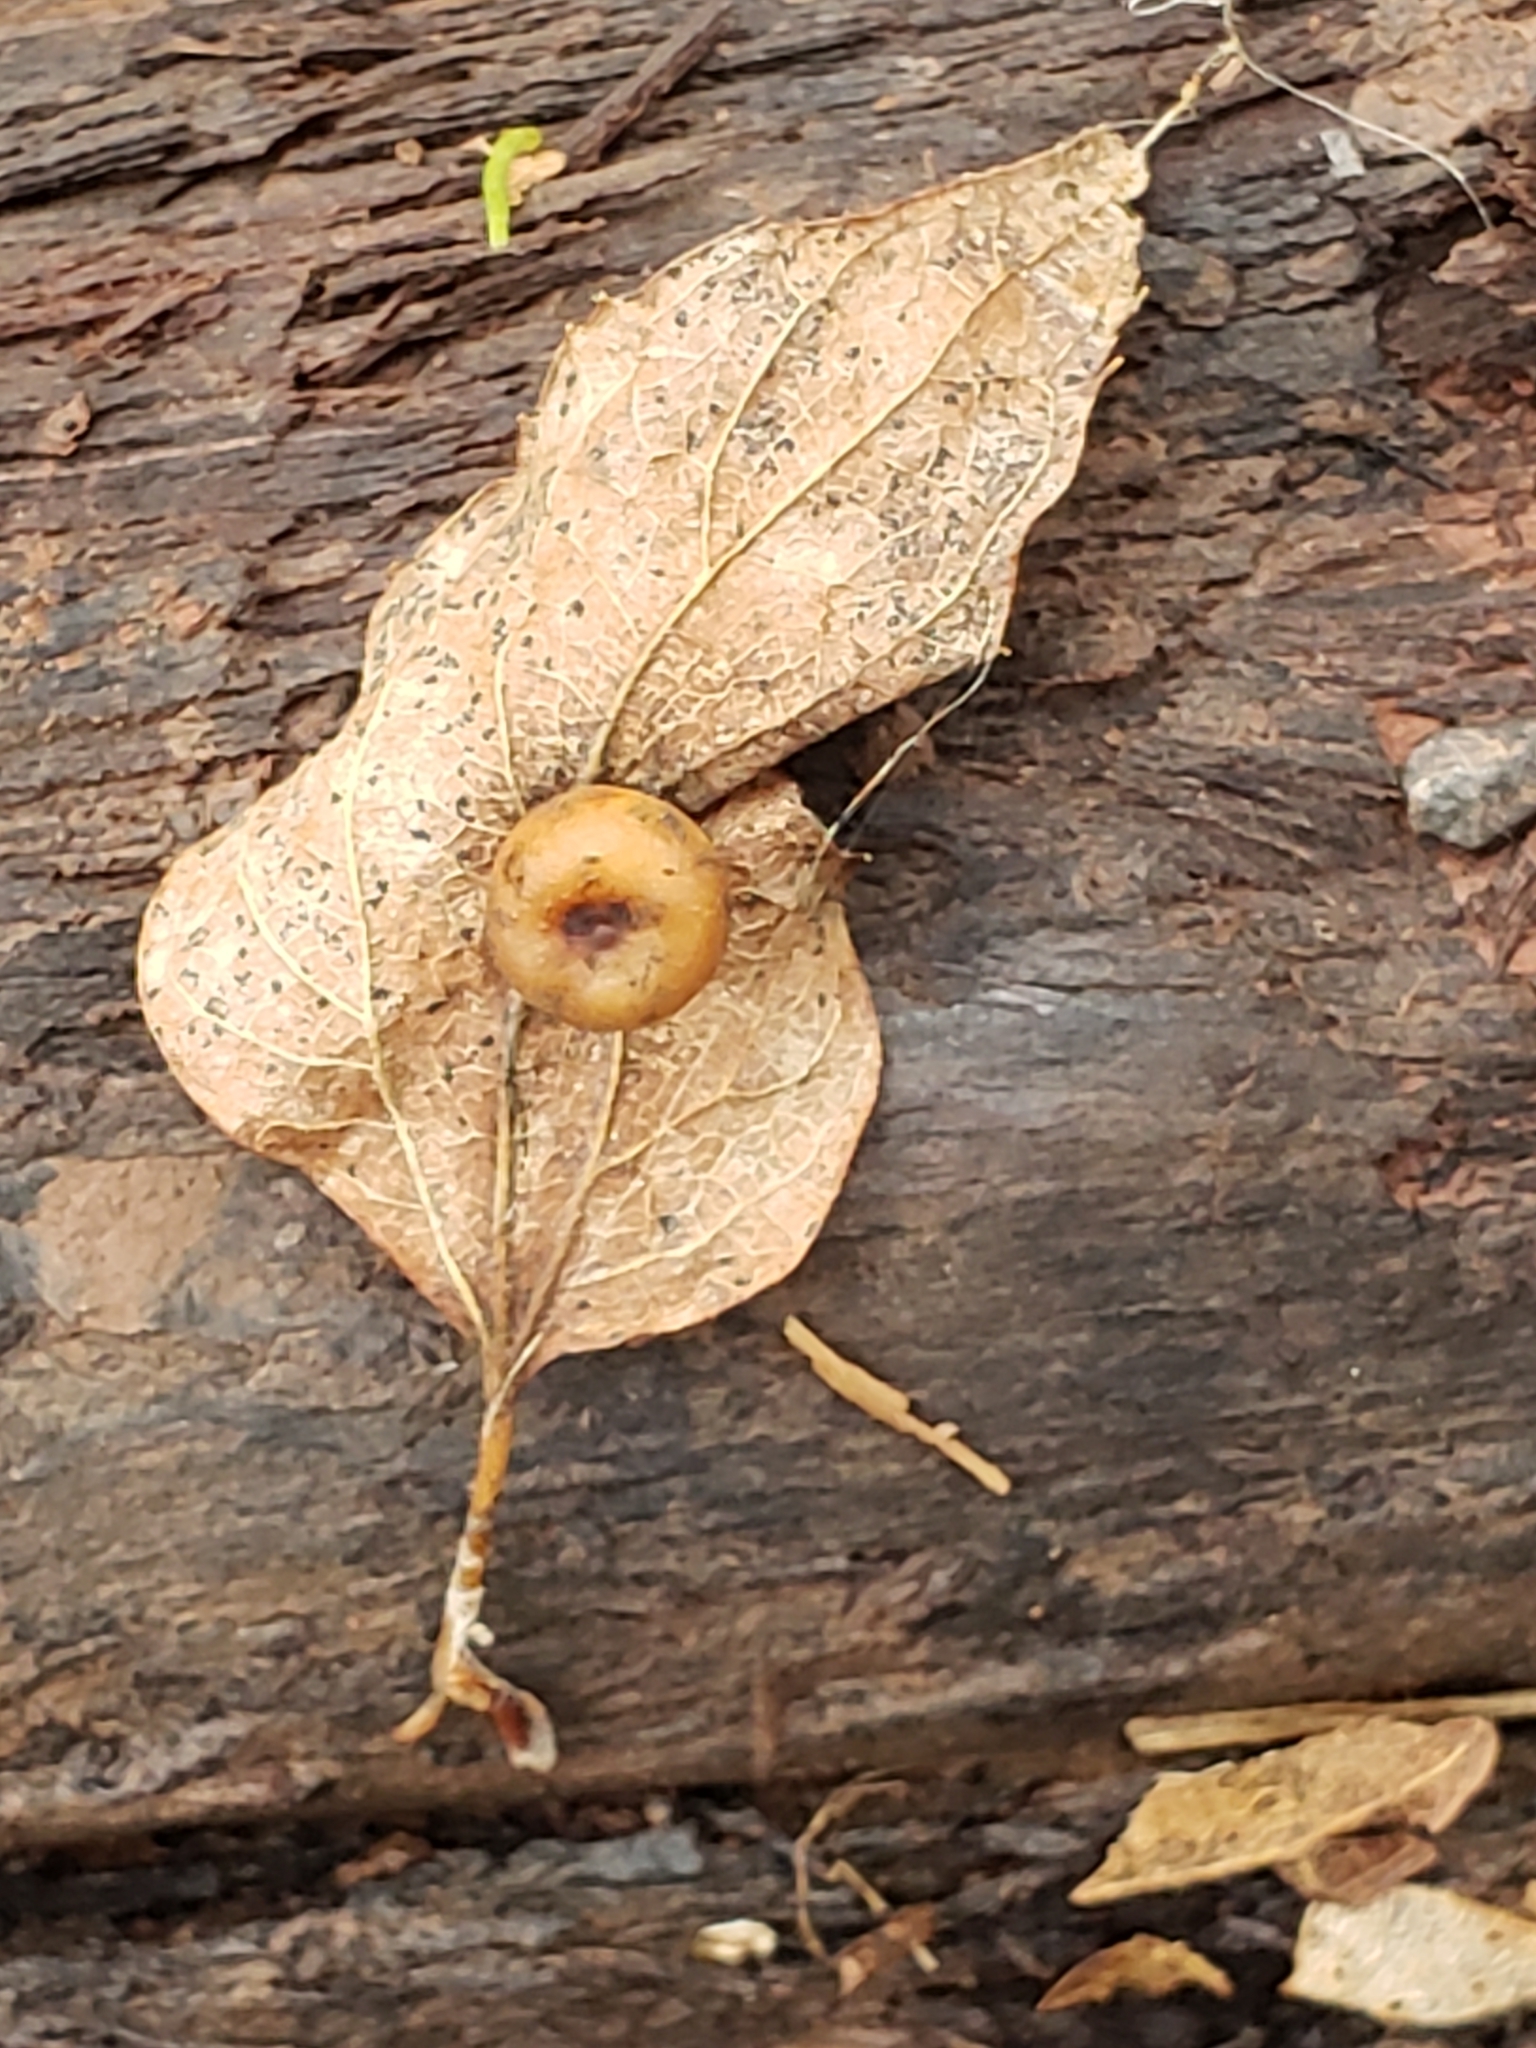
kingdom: Animalia
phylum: Arthropoda
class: Insecta
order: Hemiptera
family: Aphalaridae
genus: Pachypsylla
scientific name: Pachypsylla celtidismamma
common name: Hackberry nipplegall psyllid
